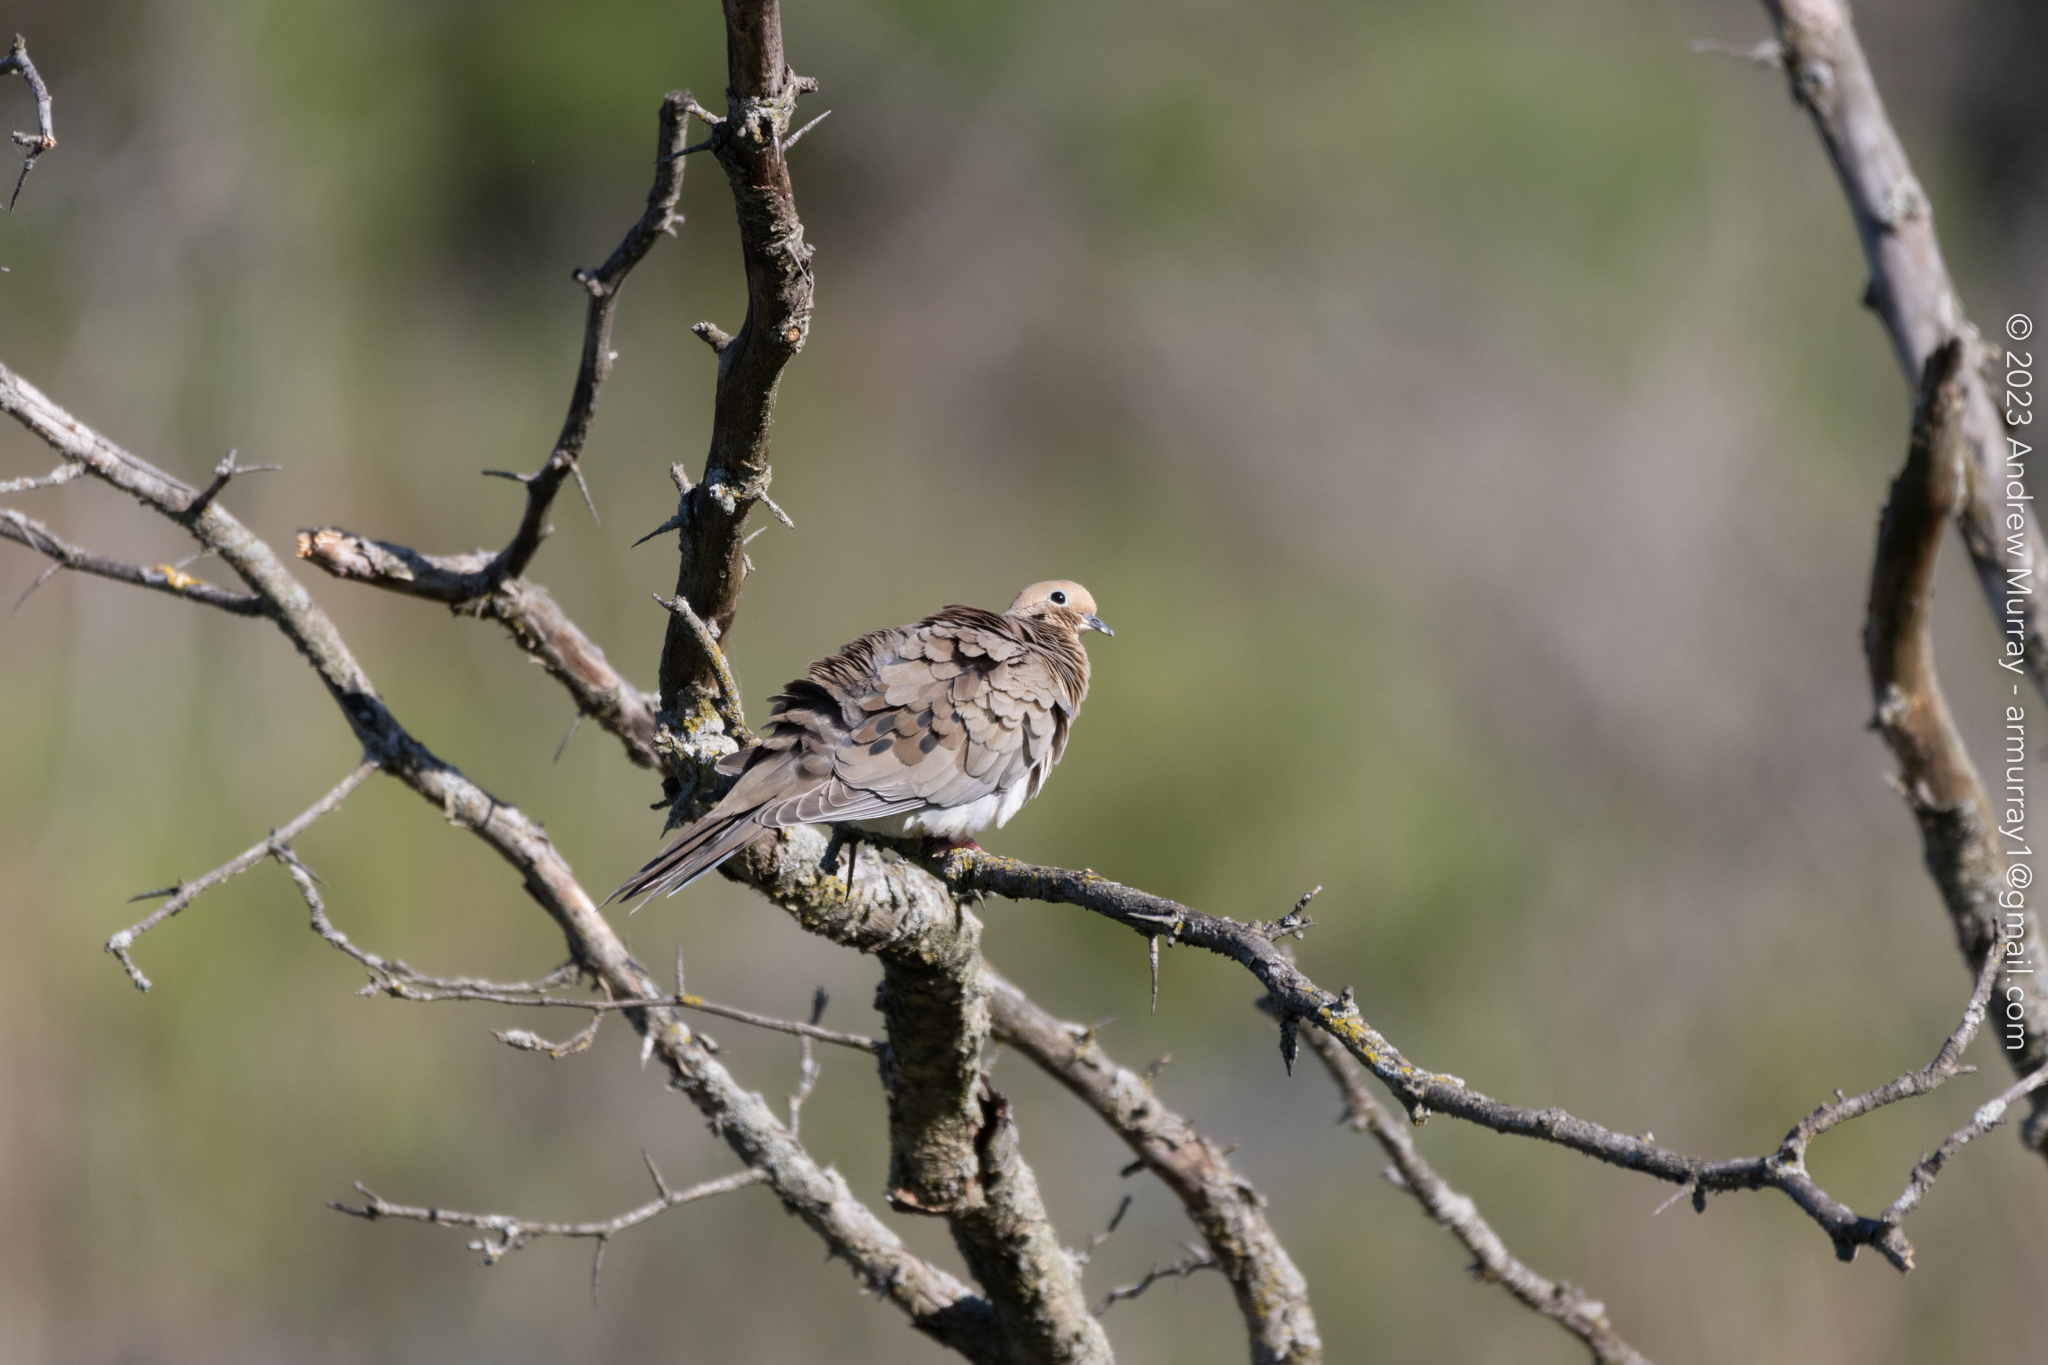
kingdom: Animalia
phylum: Chordata
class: Aves
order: Columbiformes
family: Columbidae
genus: Zenaida
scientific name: Zenaida macroura
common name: Mourning dove
